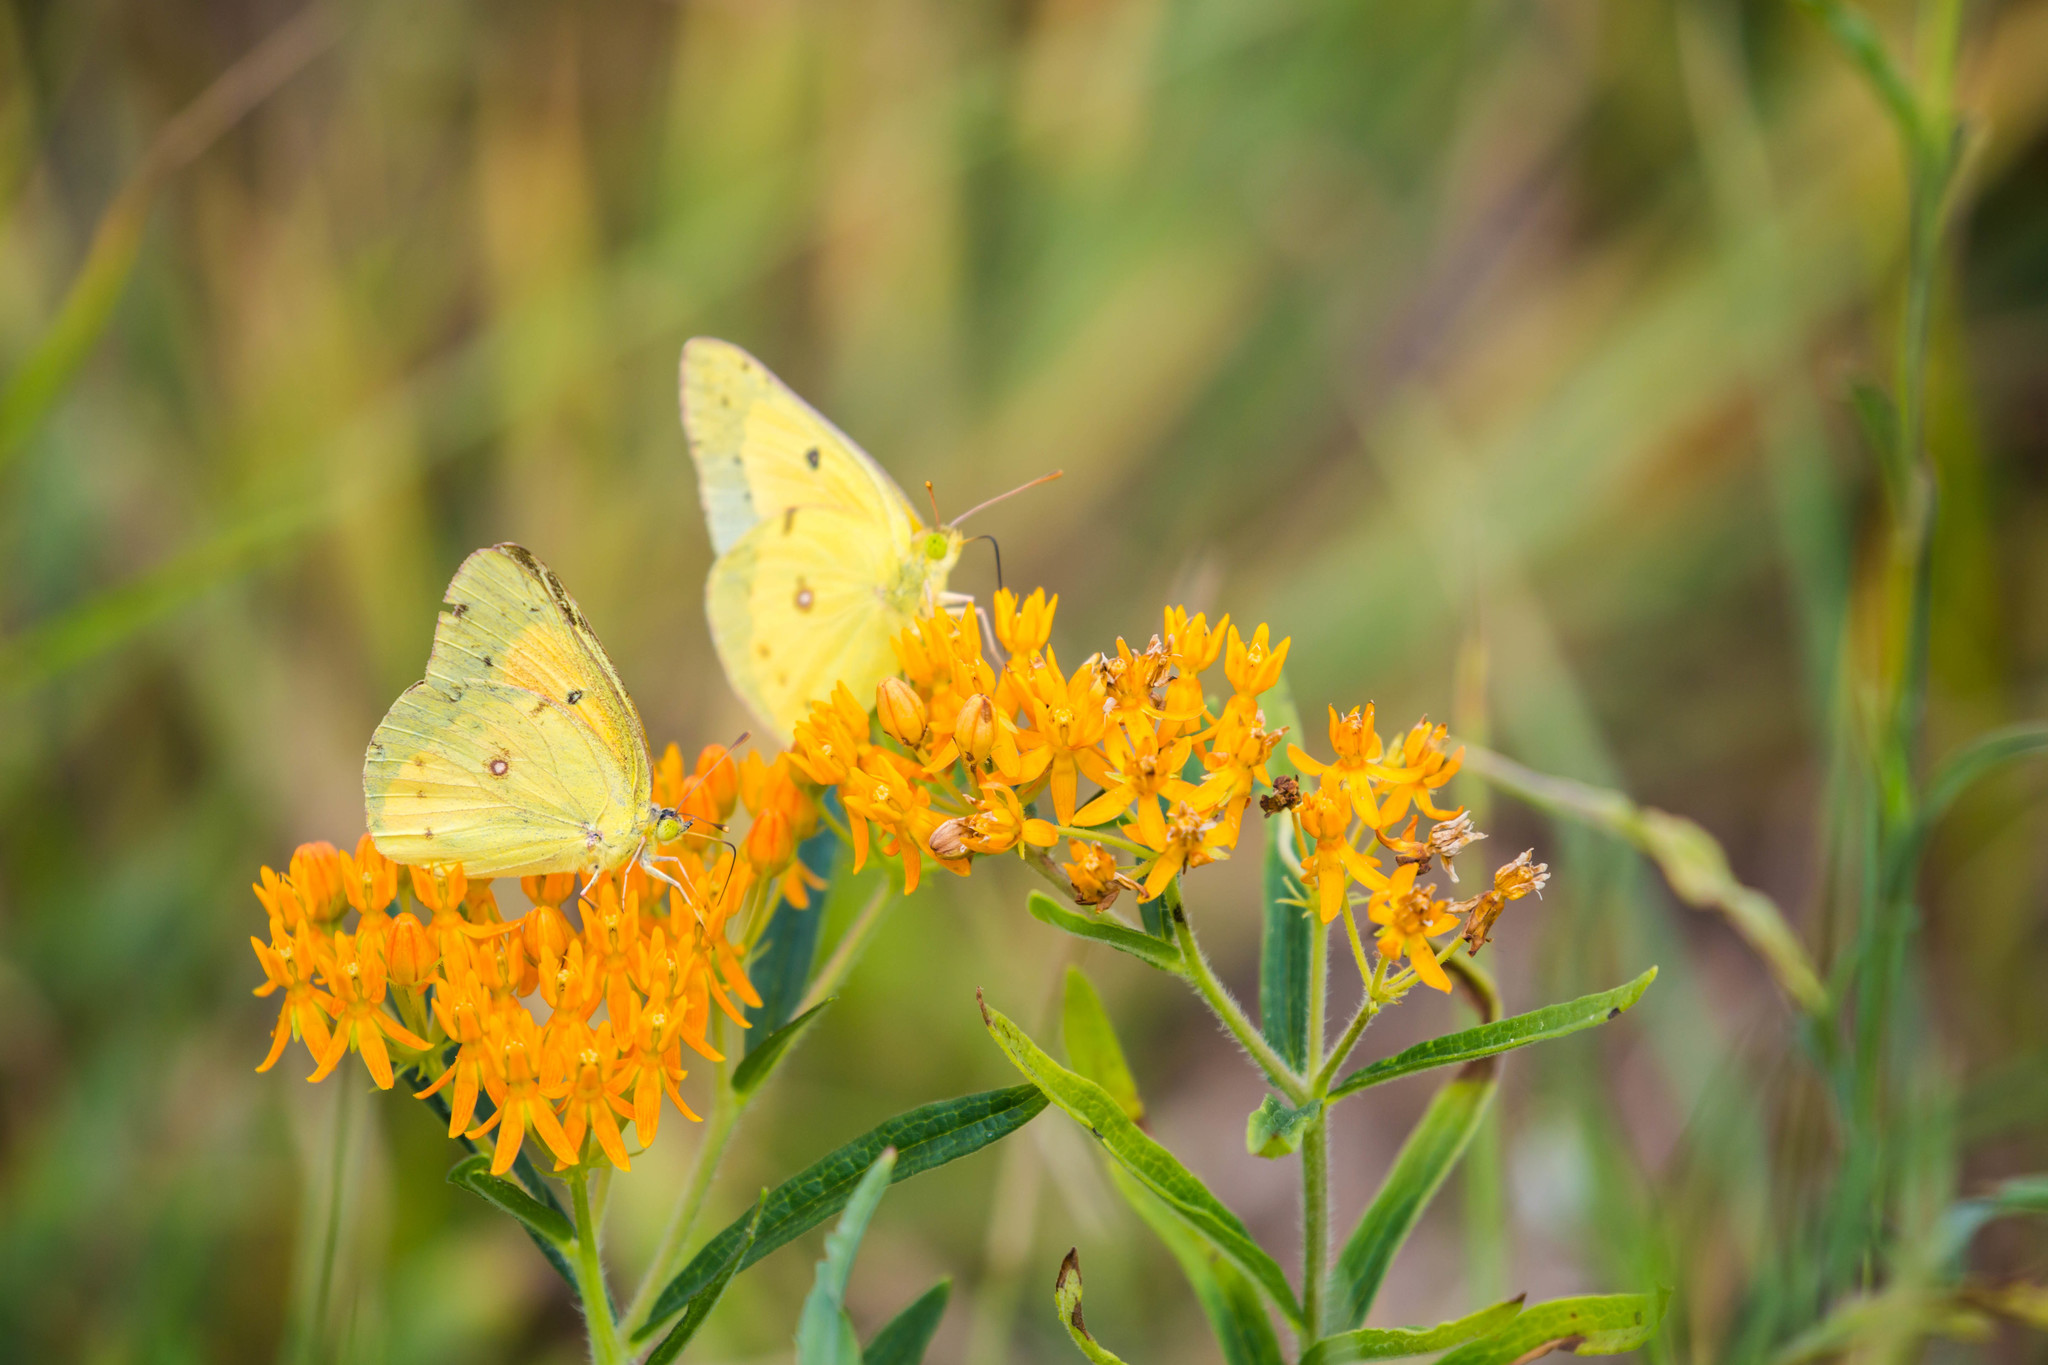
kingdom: Animalia
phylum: Arthropoda
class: Insecta
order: Lepidoptera
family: Pieridae
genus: Colias
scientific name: Colias eurytheme
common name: Alfalfa butterfly
